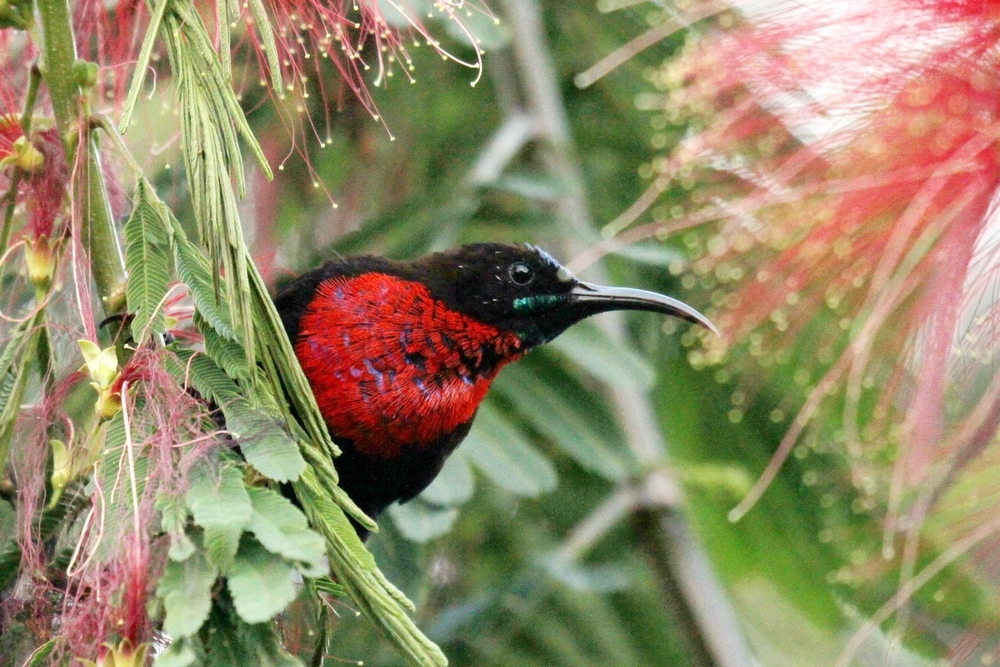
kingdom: Animalia
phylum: Chordata
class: Aves
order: Passeriformes
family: Nectariniidae
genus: Chalcomitra
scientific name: Chalcomitra senegalensis
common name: Scarlet-chested sunbird
